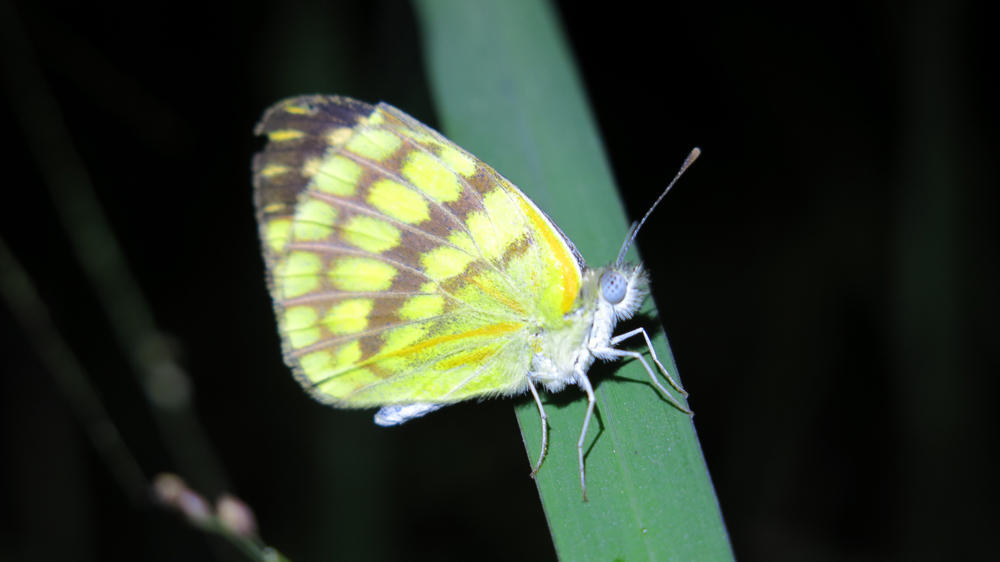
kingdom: Animalia
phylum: Arthropoda
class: Insecta
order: Lepidoptera
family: Pieridae
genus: Colotis
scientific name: Colotis vesta
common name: Veined golden arab
